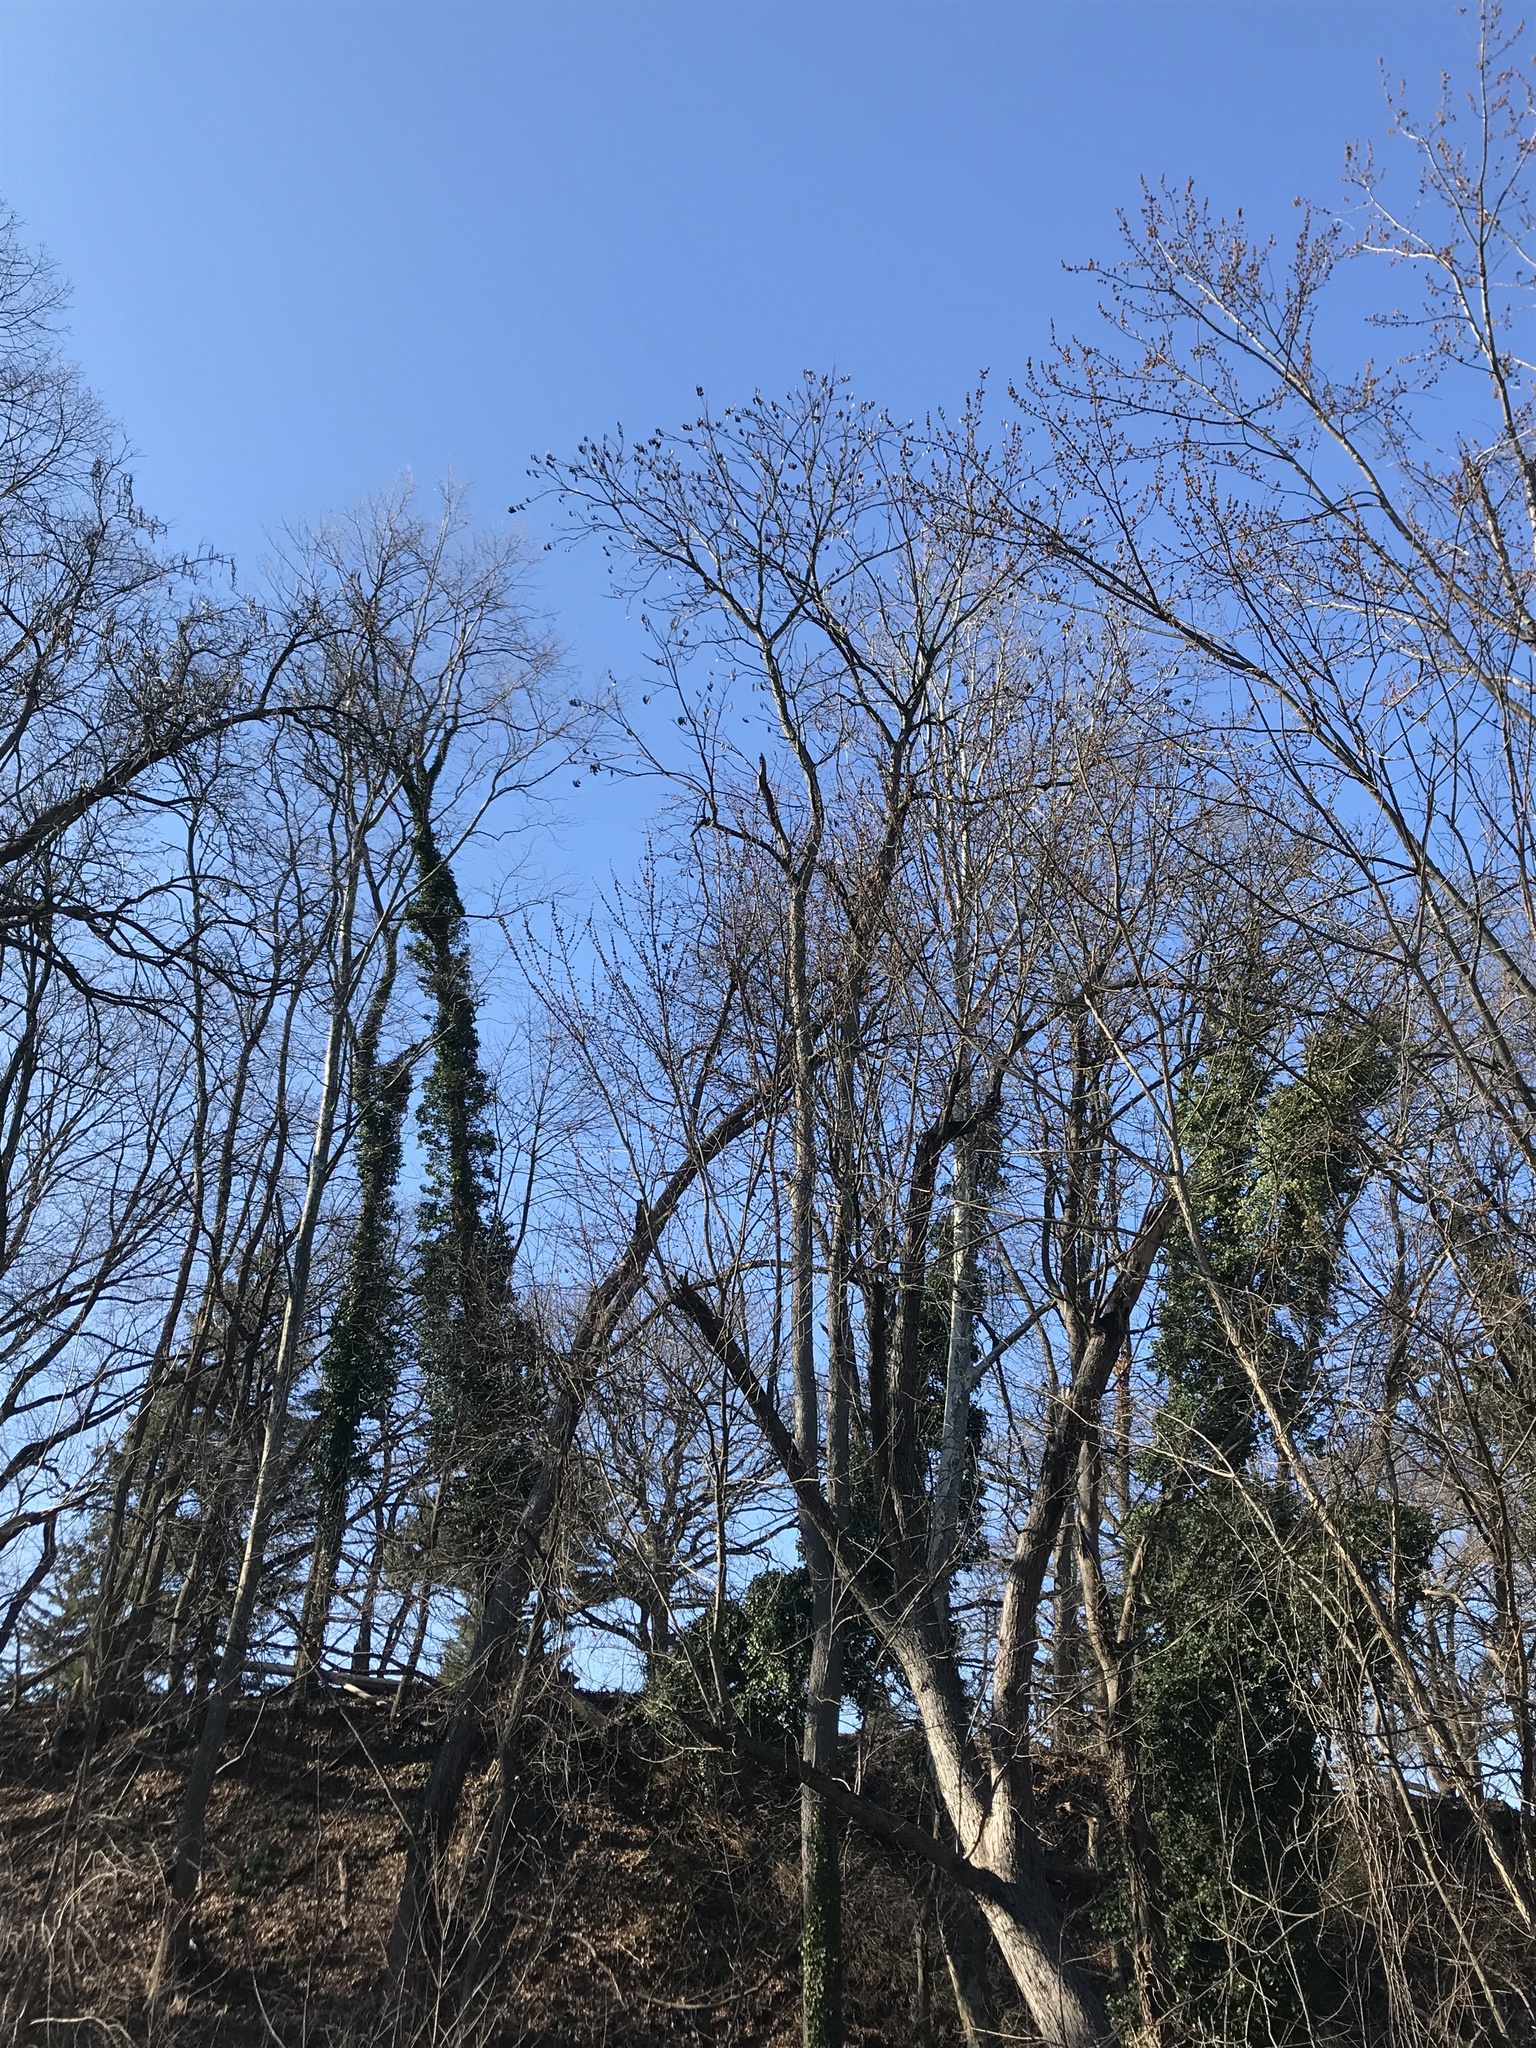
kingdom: Plantae
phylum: Tracheophyta
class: Magnoliopsida
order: Fabales
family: Fabaceae
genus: Gymnocladus
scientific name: Gymnocladus dioicus
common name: Kentucky coffee-tree
